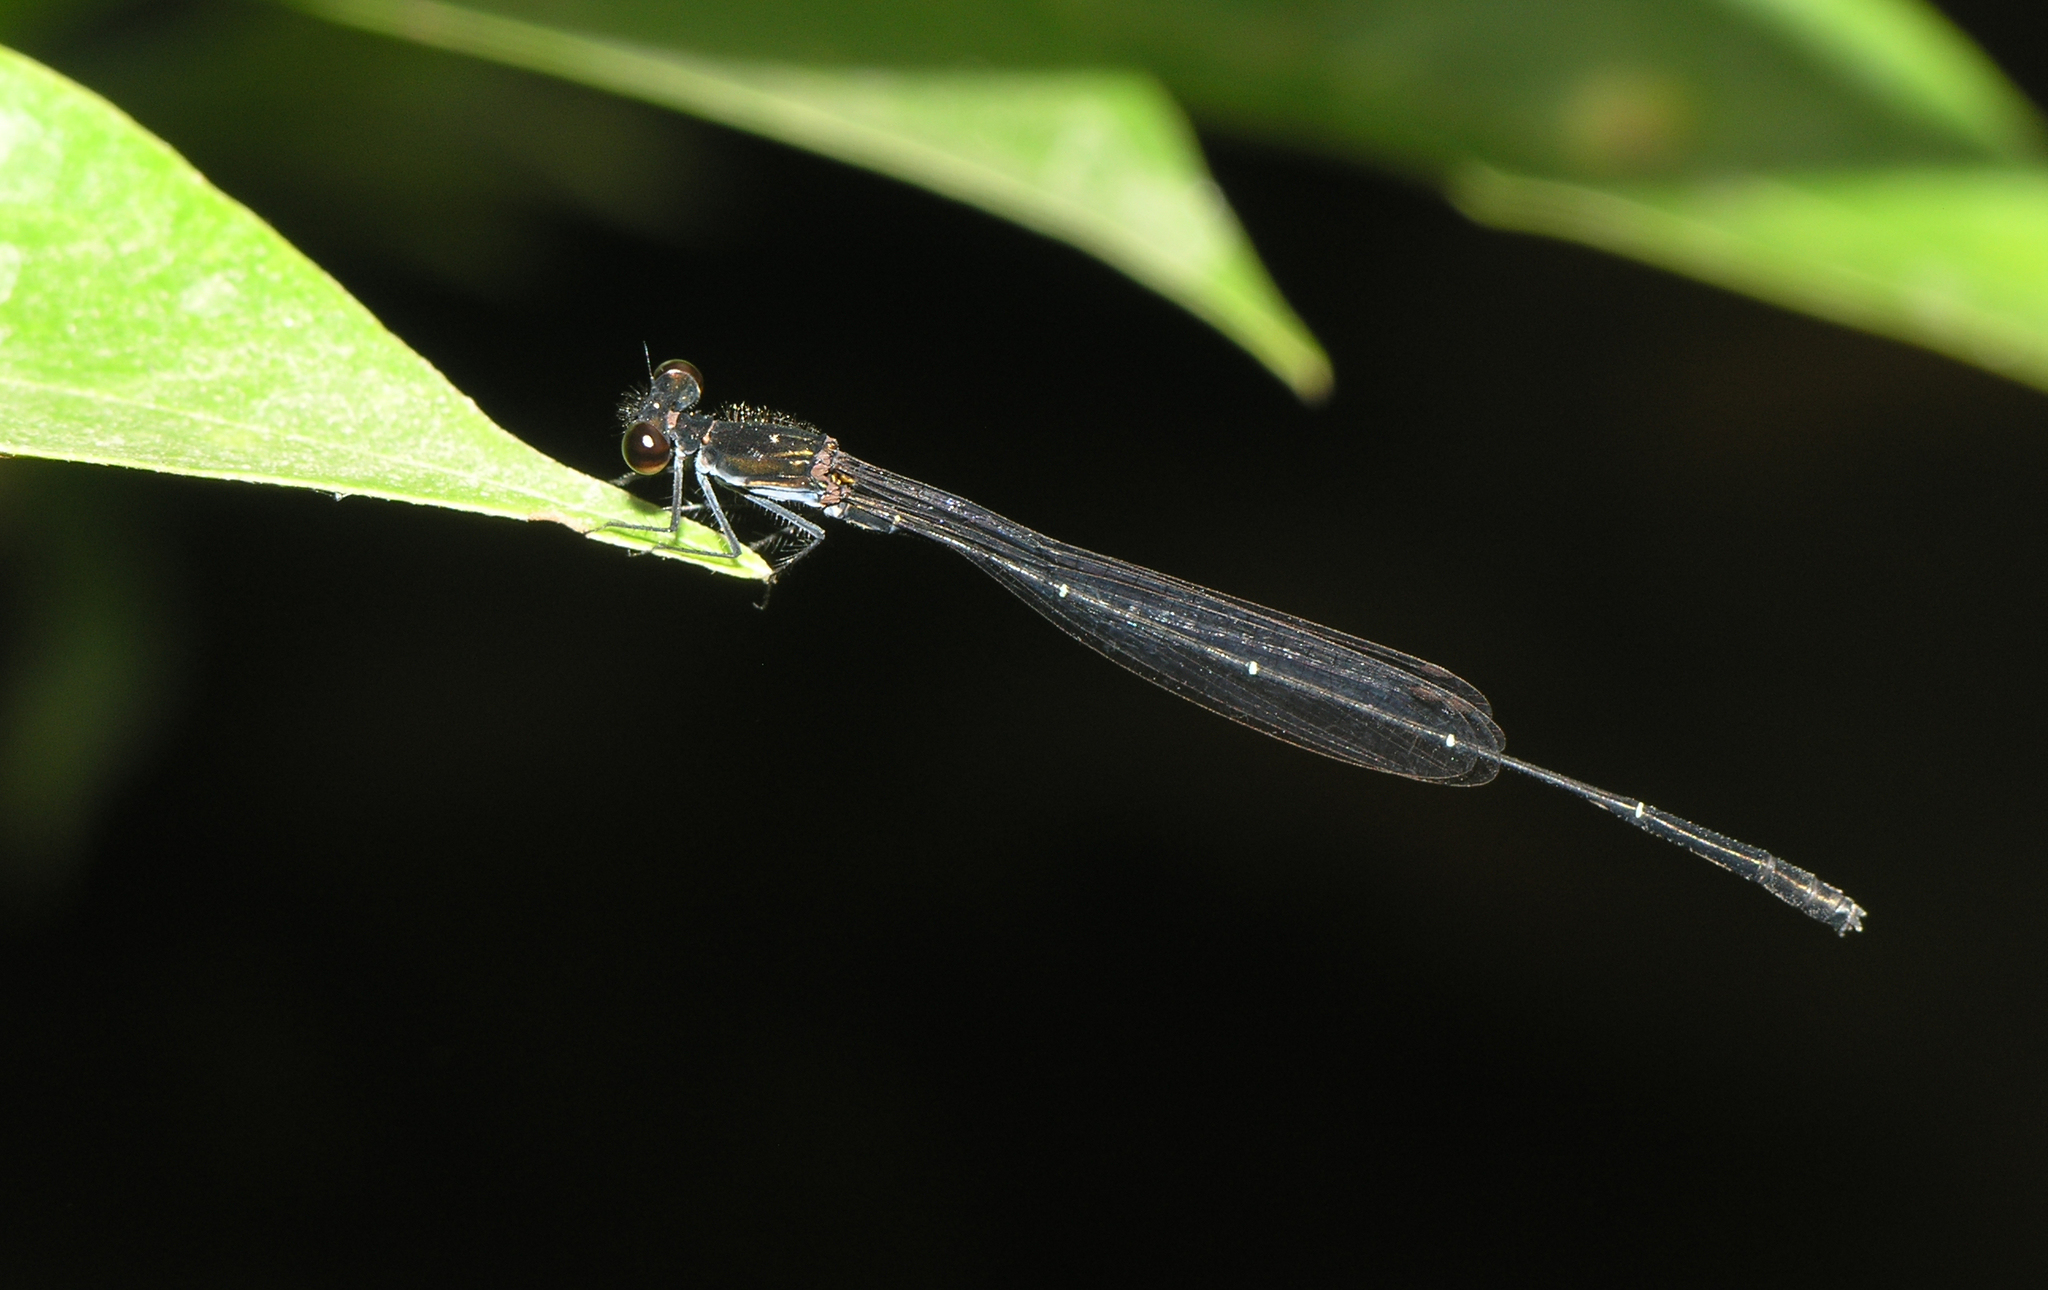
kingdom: Animalia
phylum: Arthropoda
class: Insecta
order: Odonata
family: Coenagrionidae
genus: Pseudagrion
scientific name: Pseudagrion pruinosum
